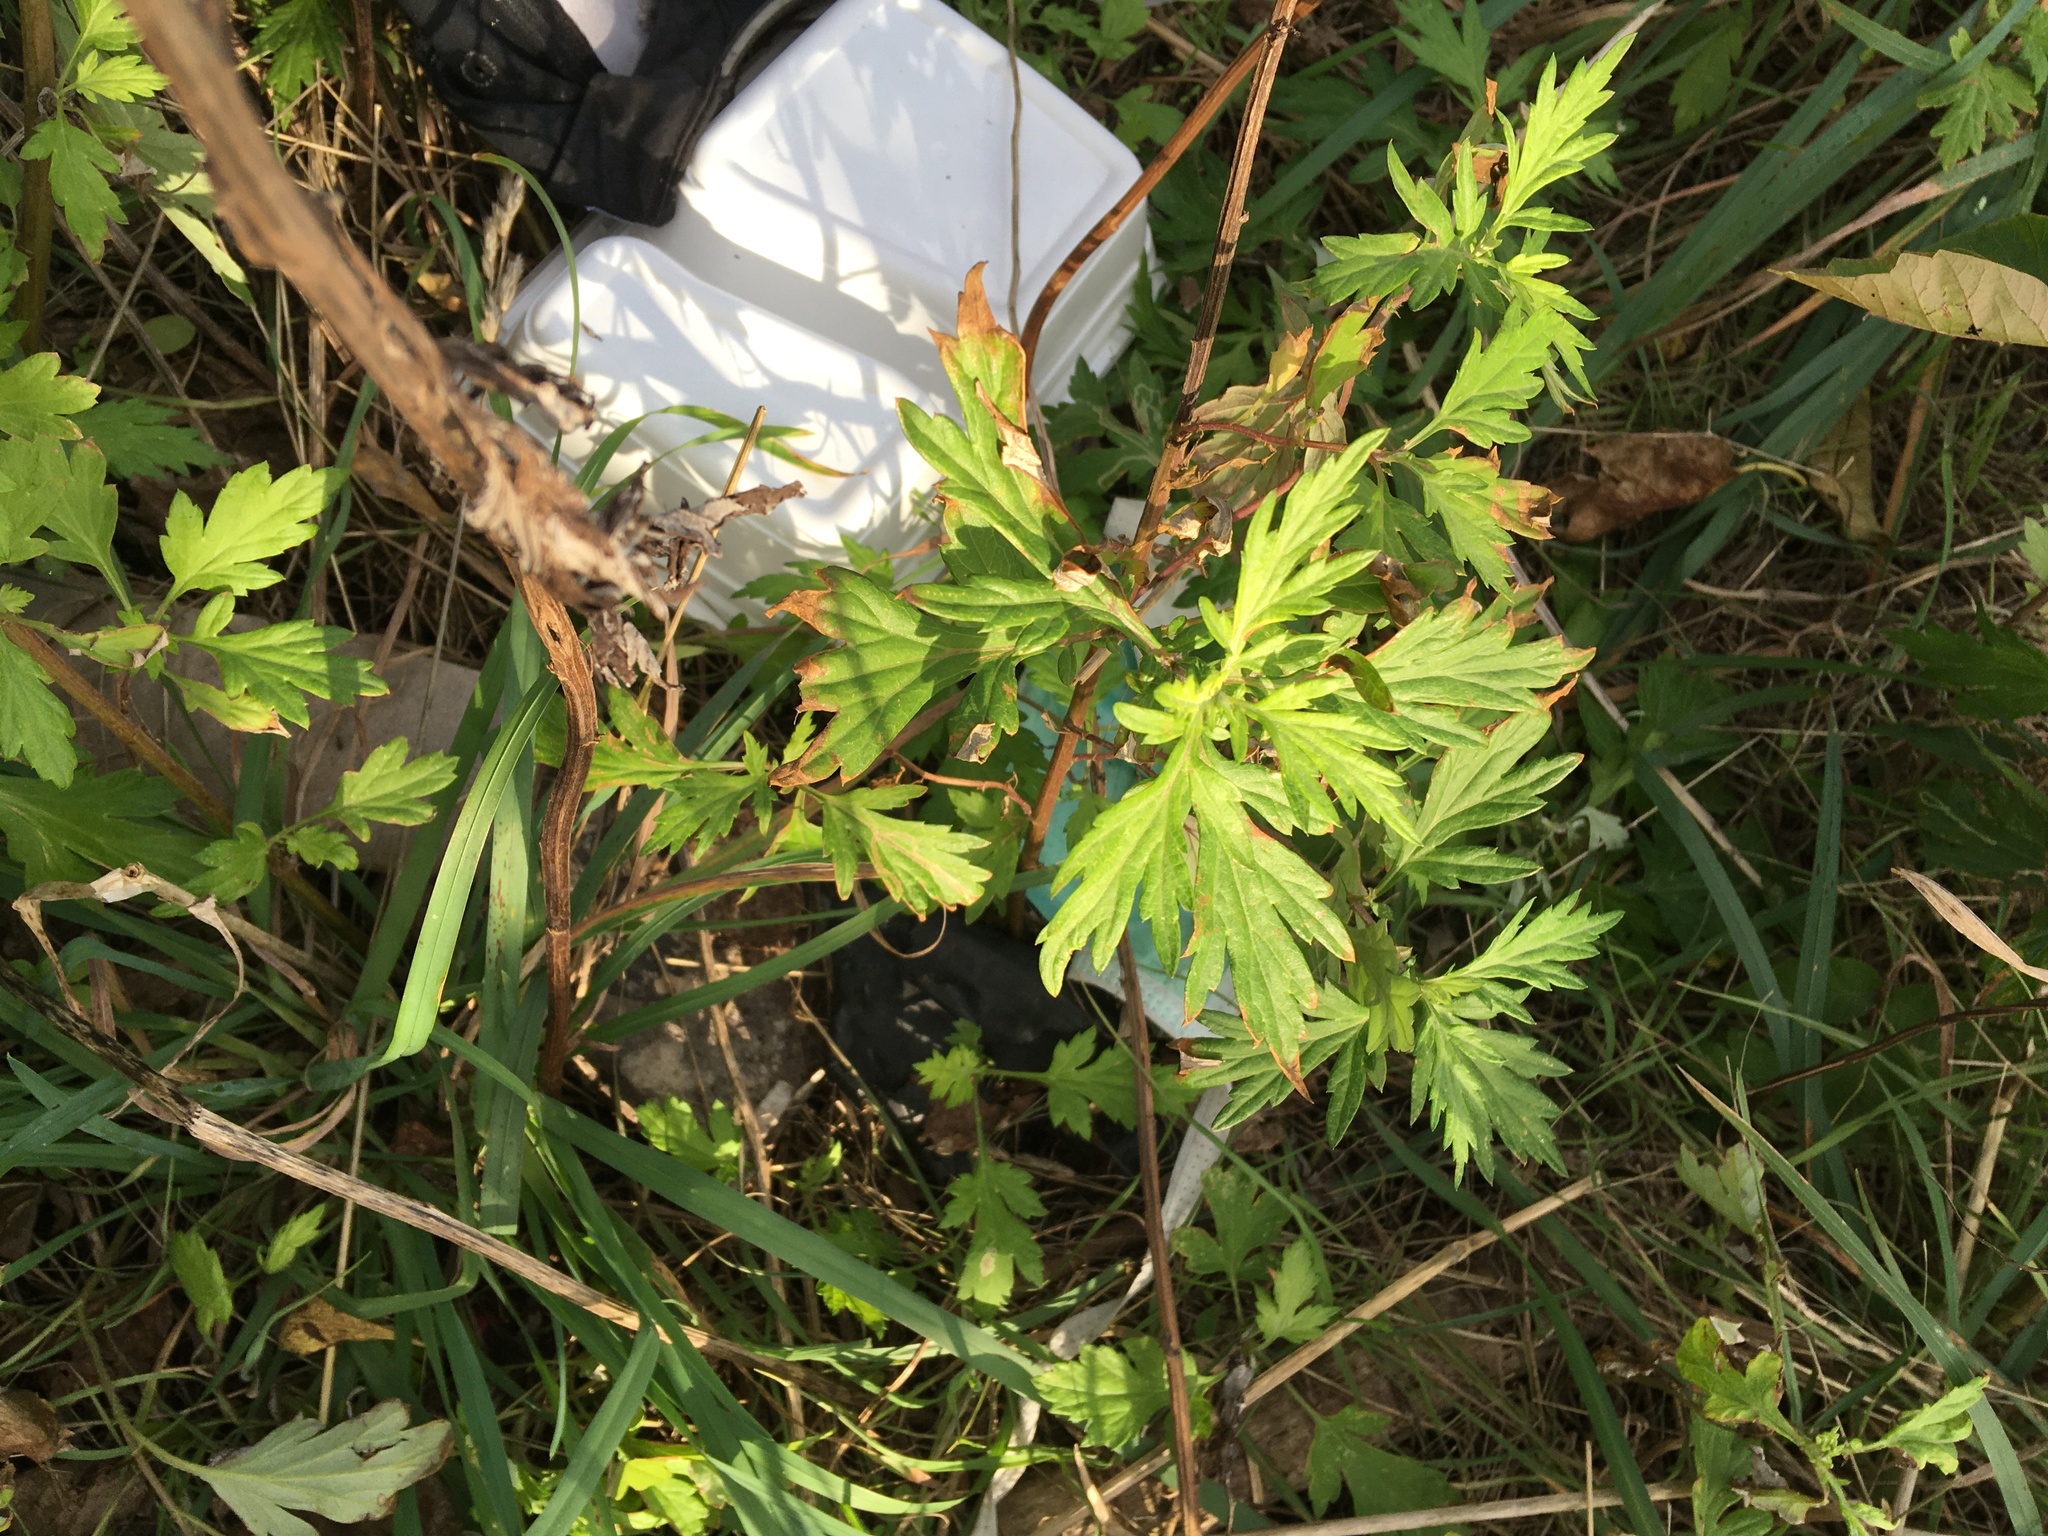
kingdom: Plantae
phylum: Tracheophyta
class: Magnoliopsida
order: Asterales
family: Asteraceae
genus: Artemisia
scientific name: Artemisia vulgaris
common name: Mugwort
